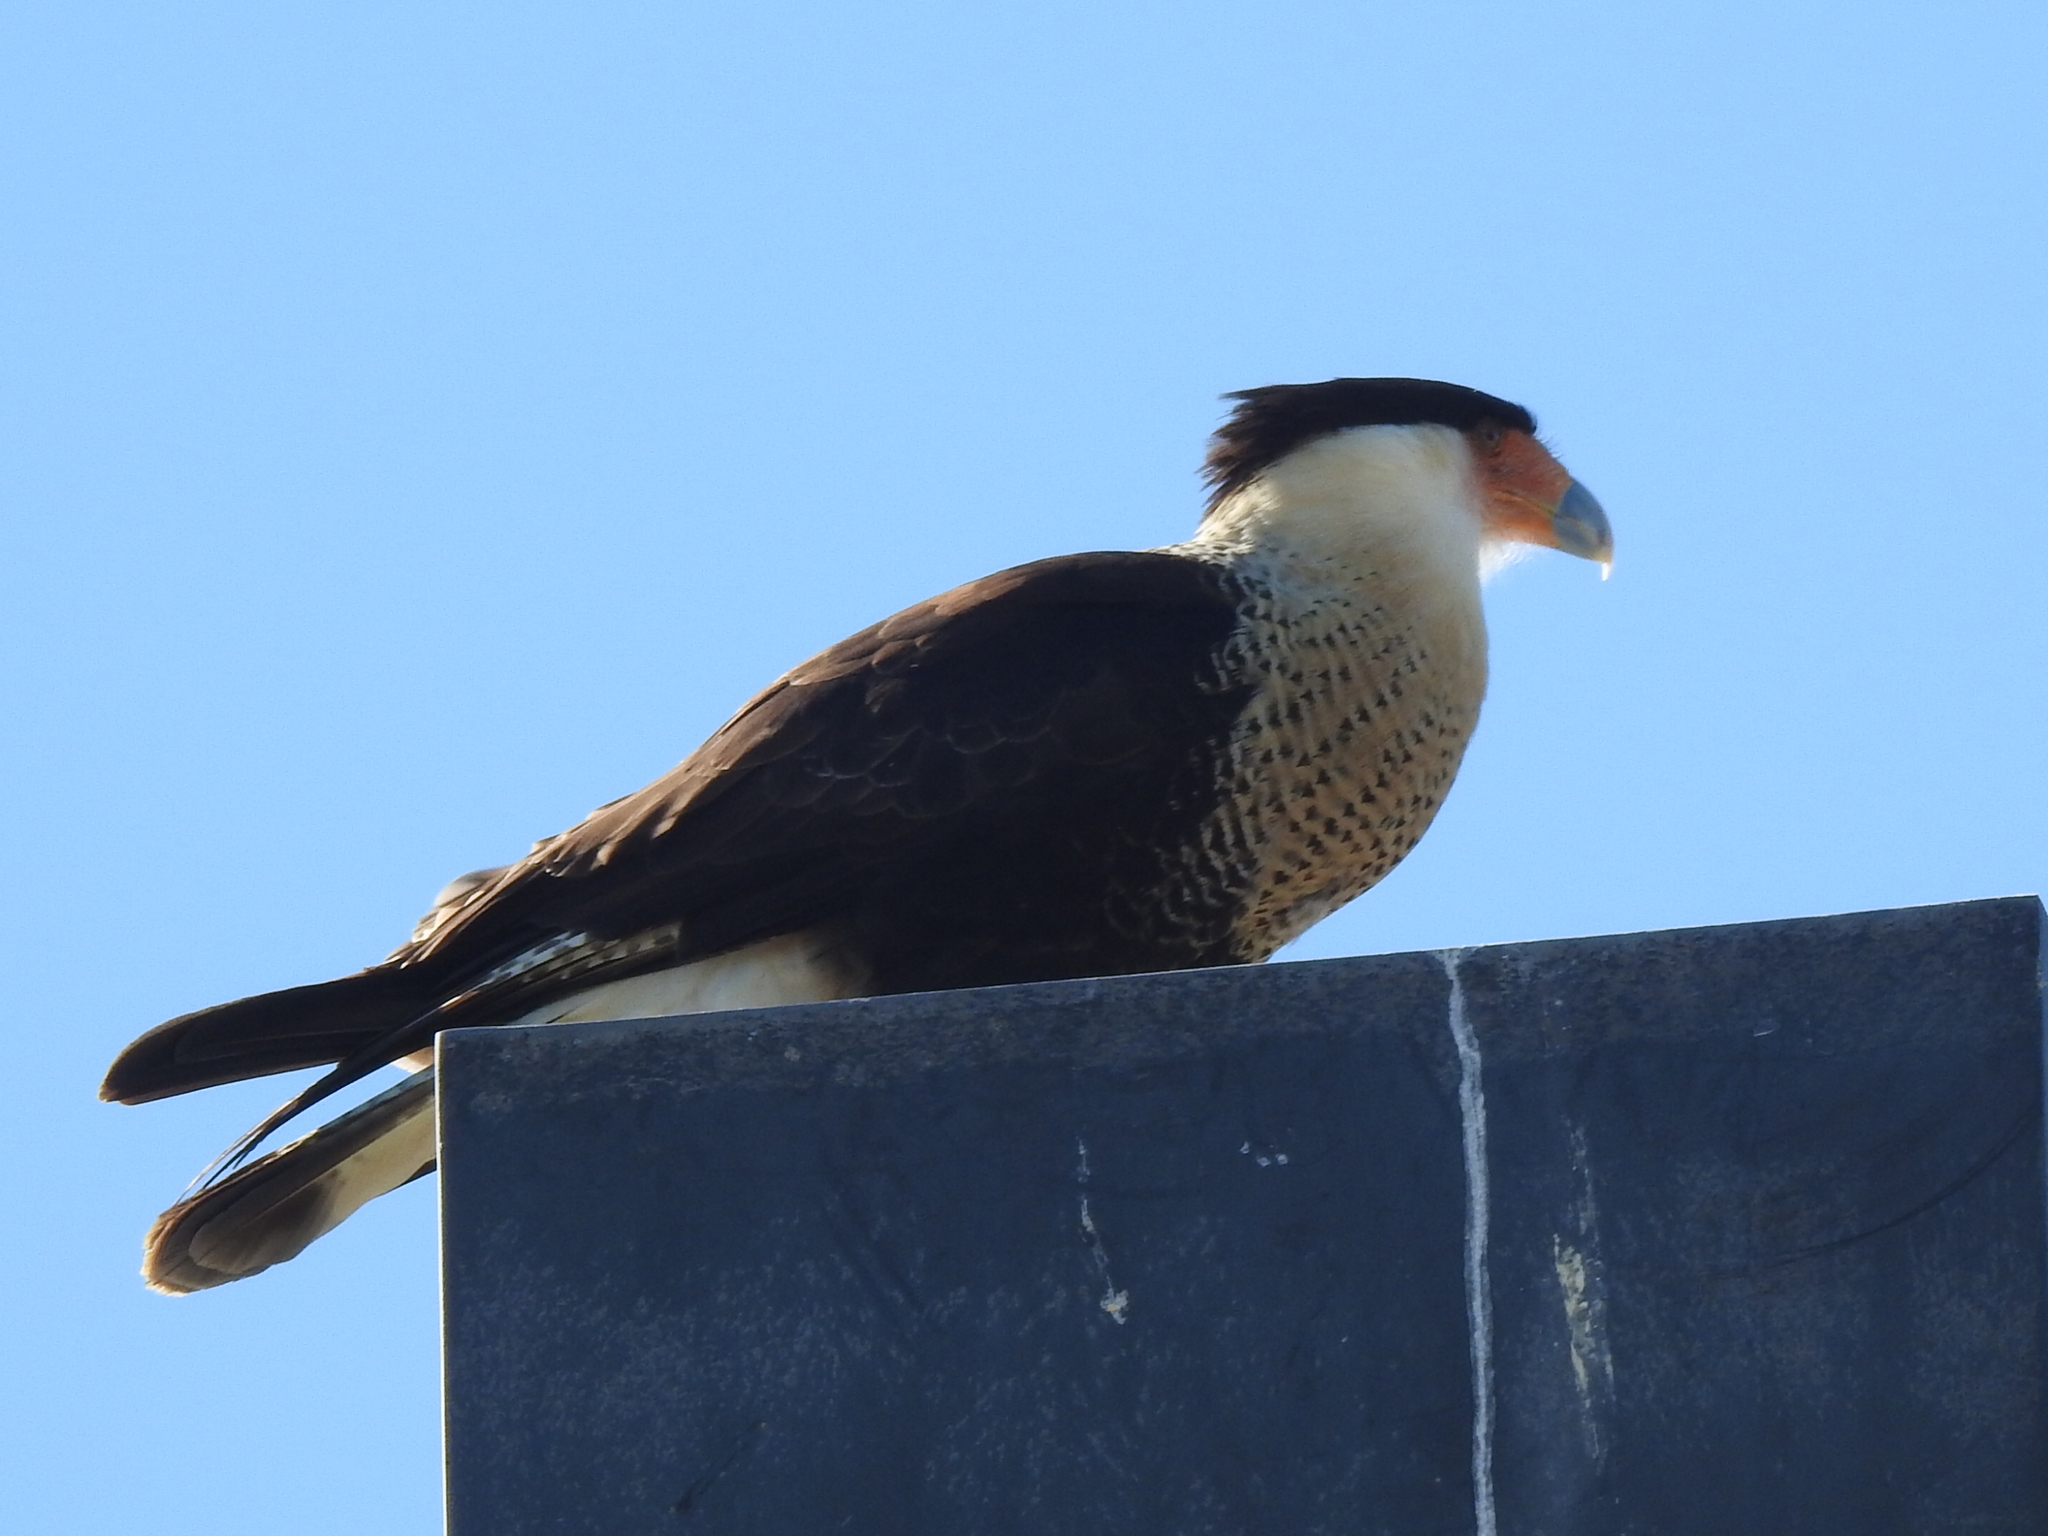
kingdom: Animalia
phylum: Chordata
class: Aves
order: Falconiformes
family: Falconidae
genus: Caracara
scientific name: Caracara plancus
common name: Southern caracara
